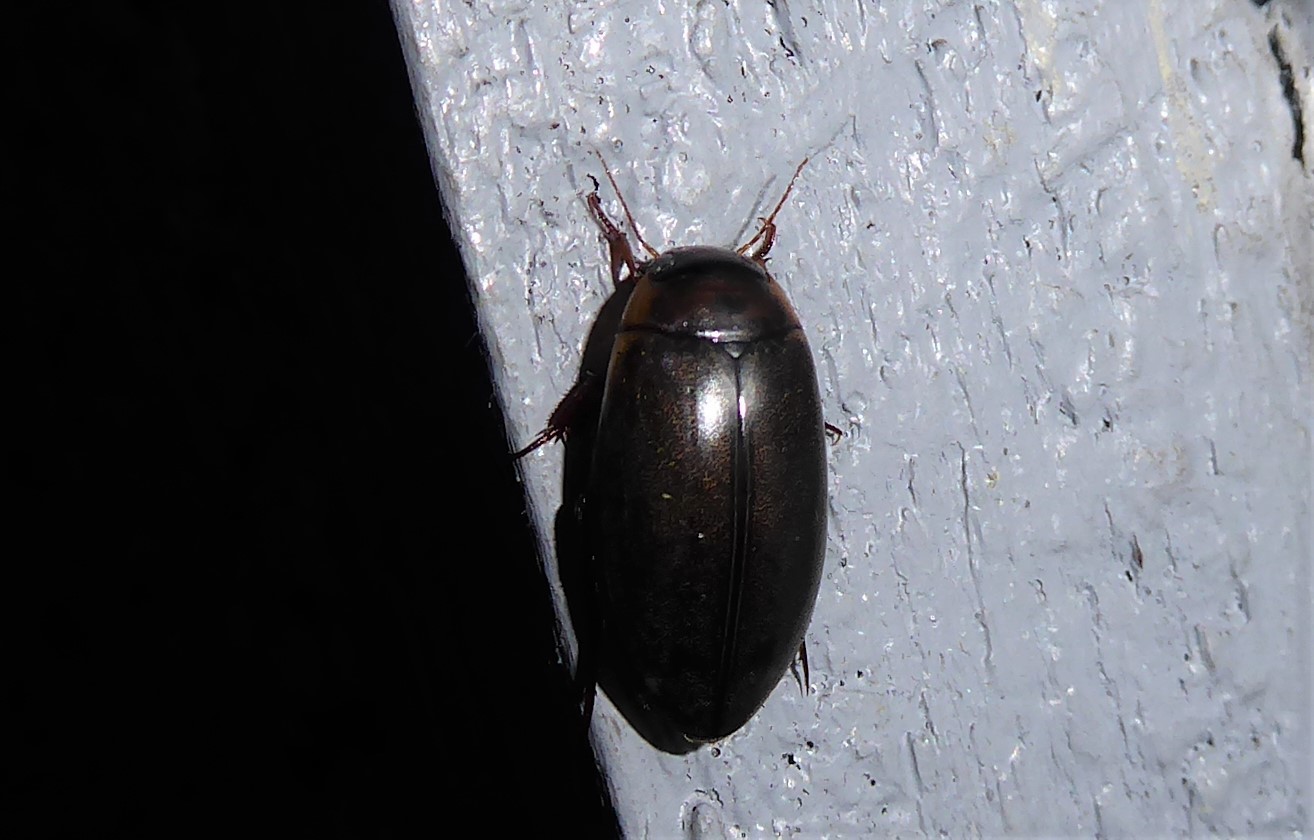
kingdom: Animalia
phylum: Arthropoda
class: Insecta
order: Coleoptera
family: Dytiscidae
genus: Rhantus
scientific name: Rhantus suturalis
